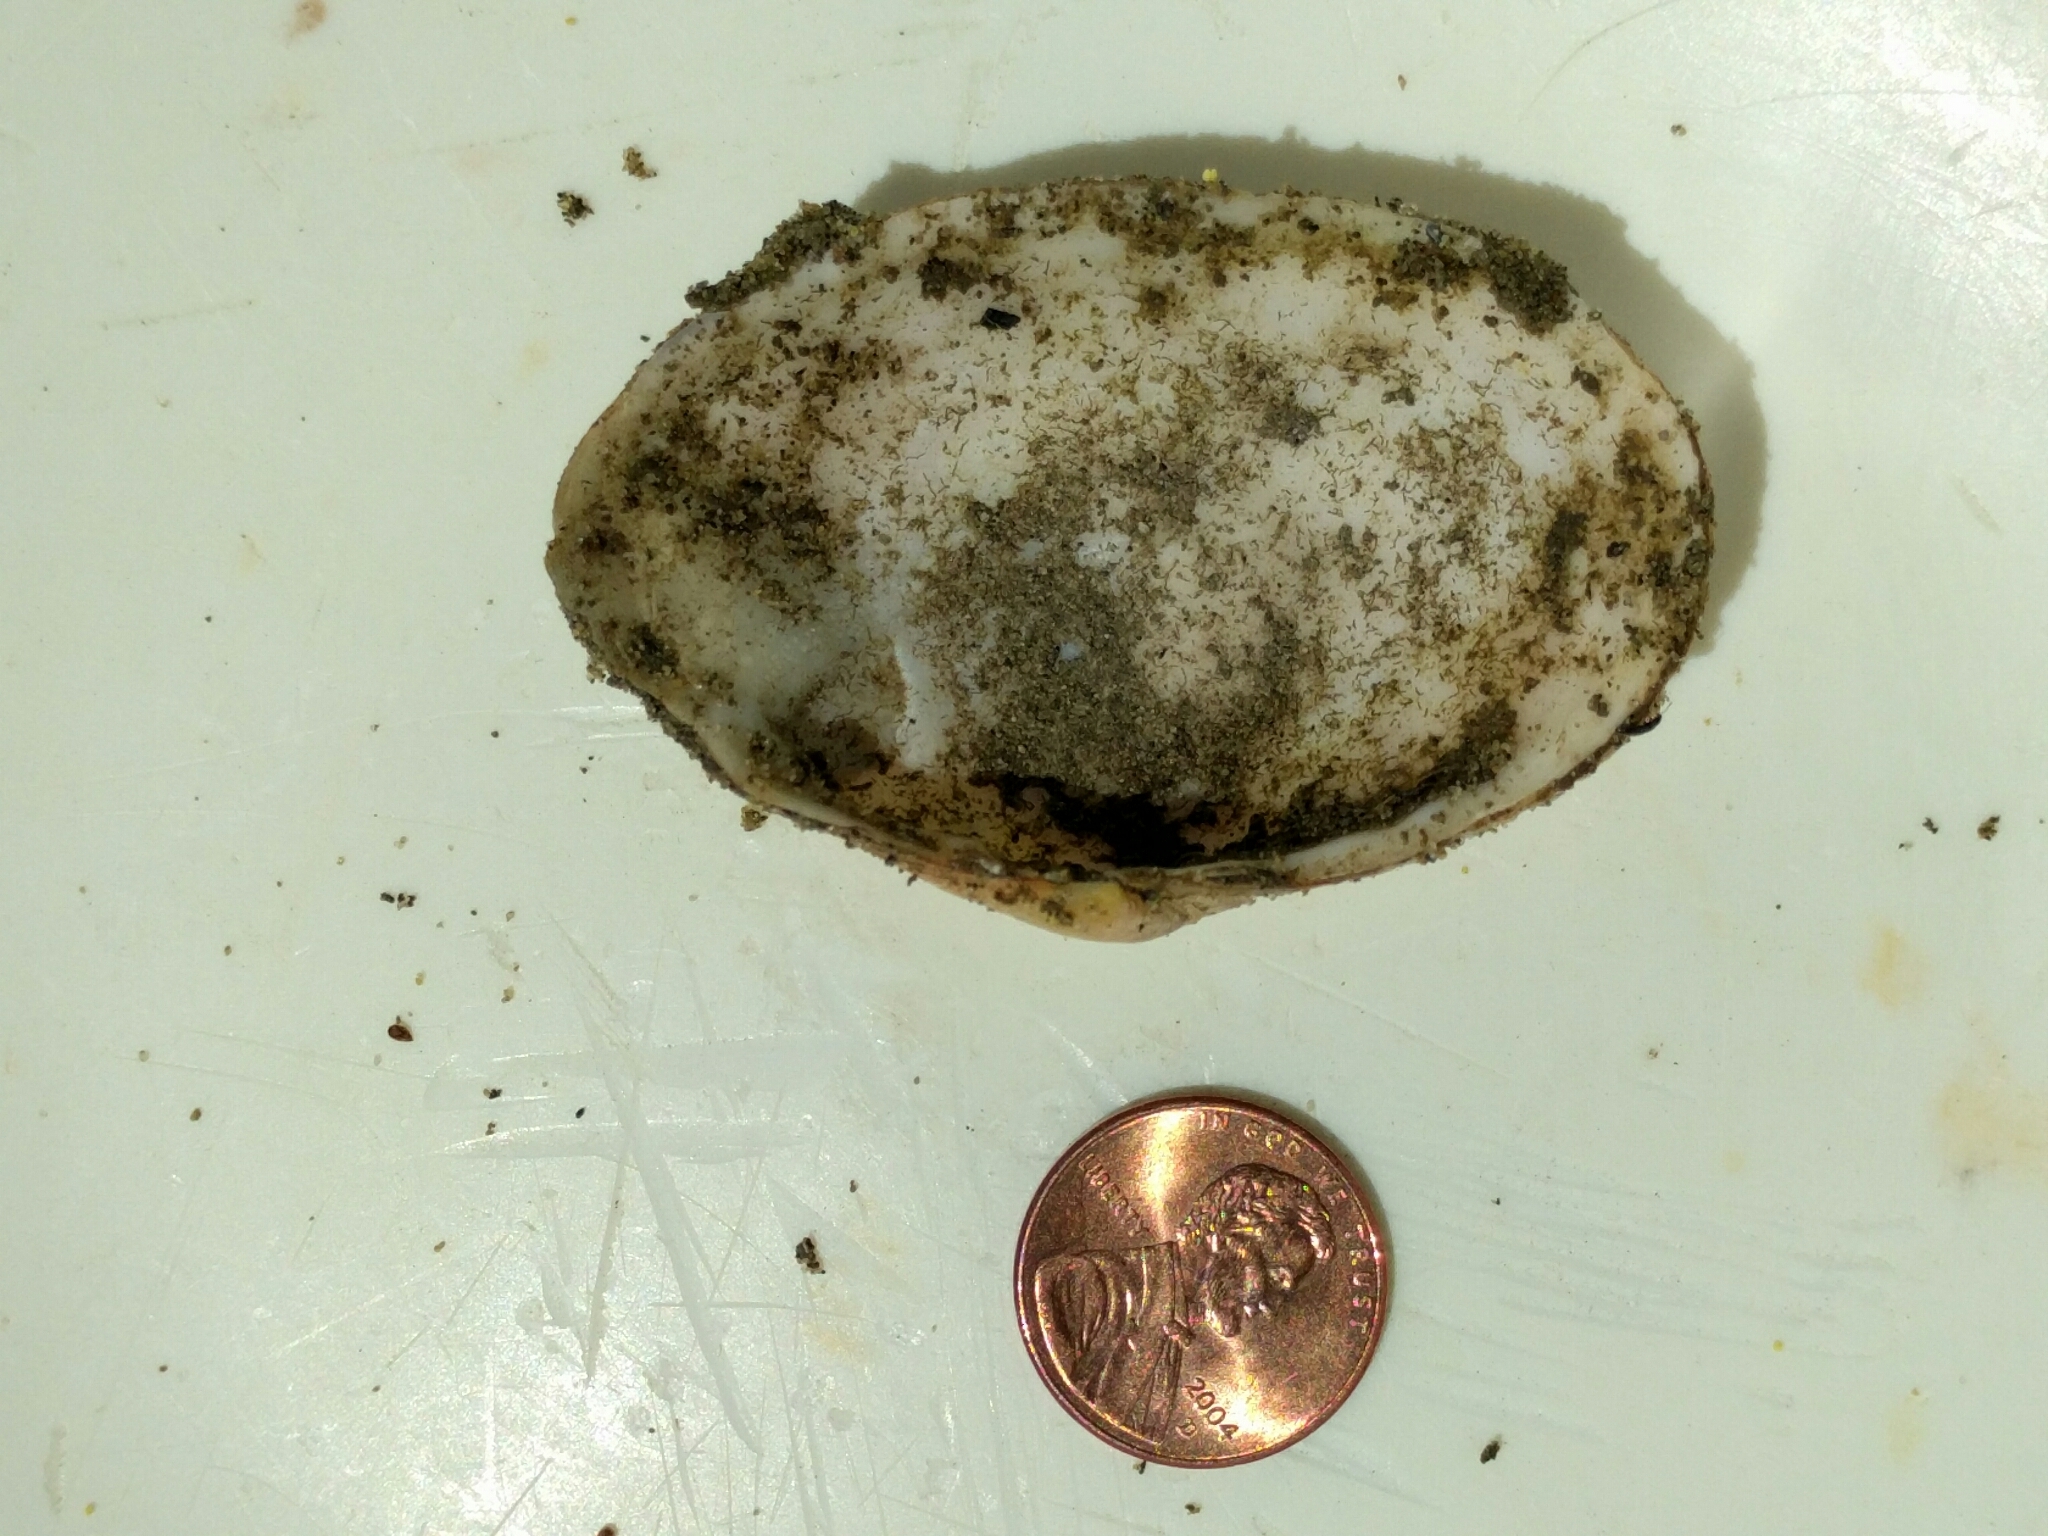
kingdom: Animalia
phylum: Mollusca
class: Bivalvia
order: Myida
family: Myidae
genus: Mya
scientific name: Mya arenaria
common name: Soft-shelled clam
